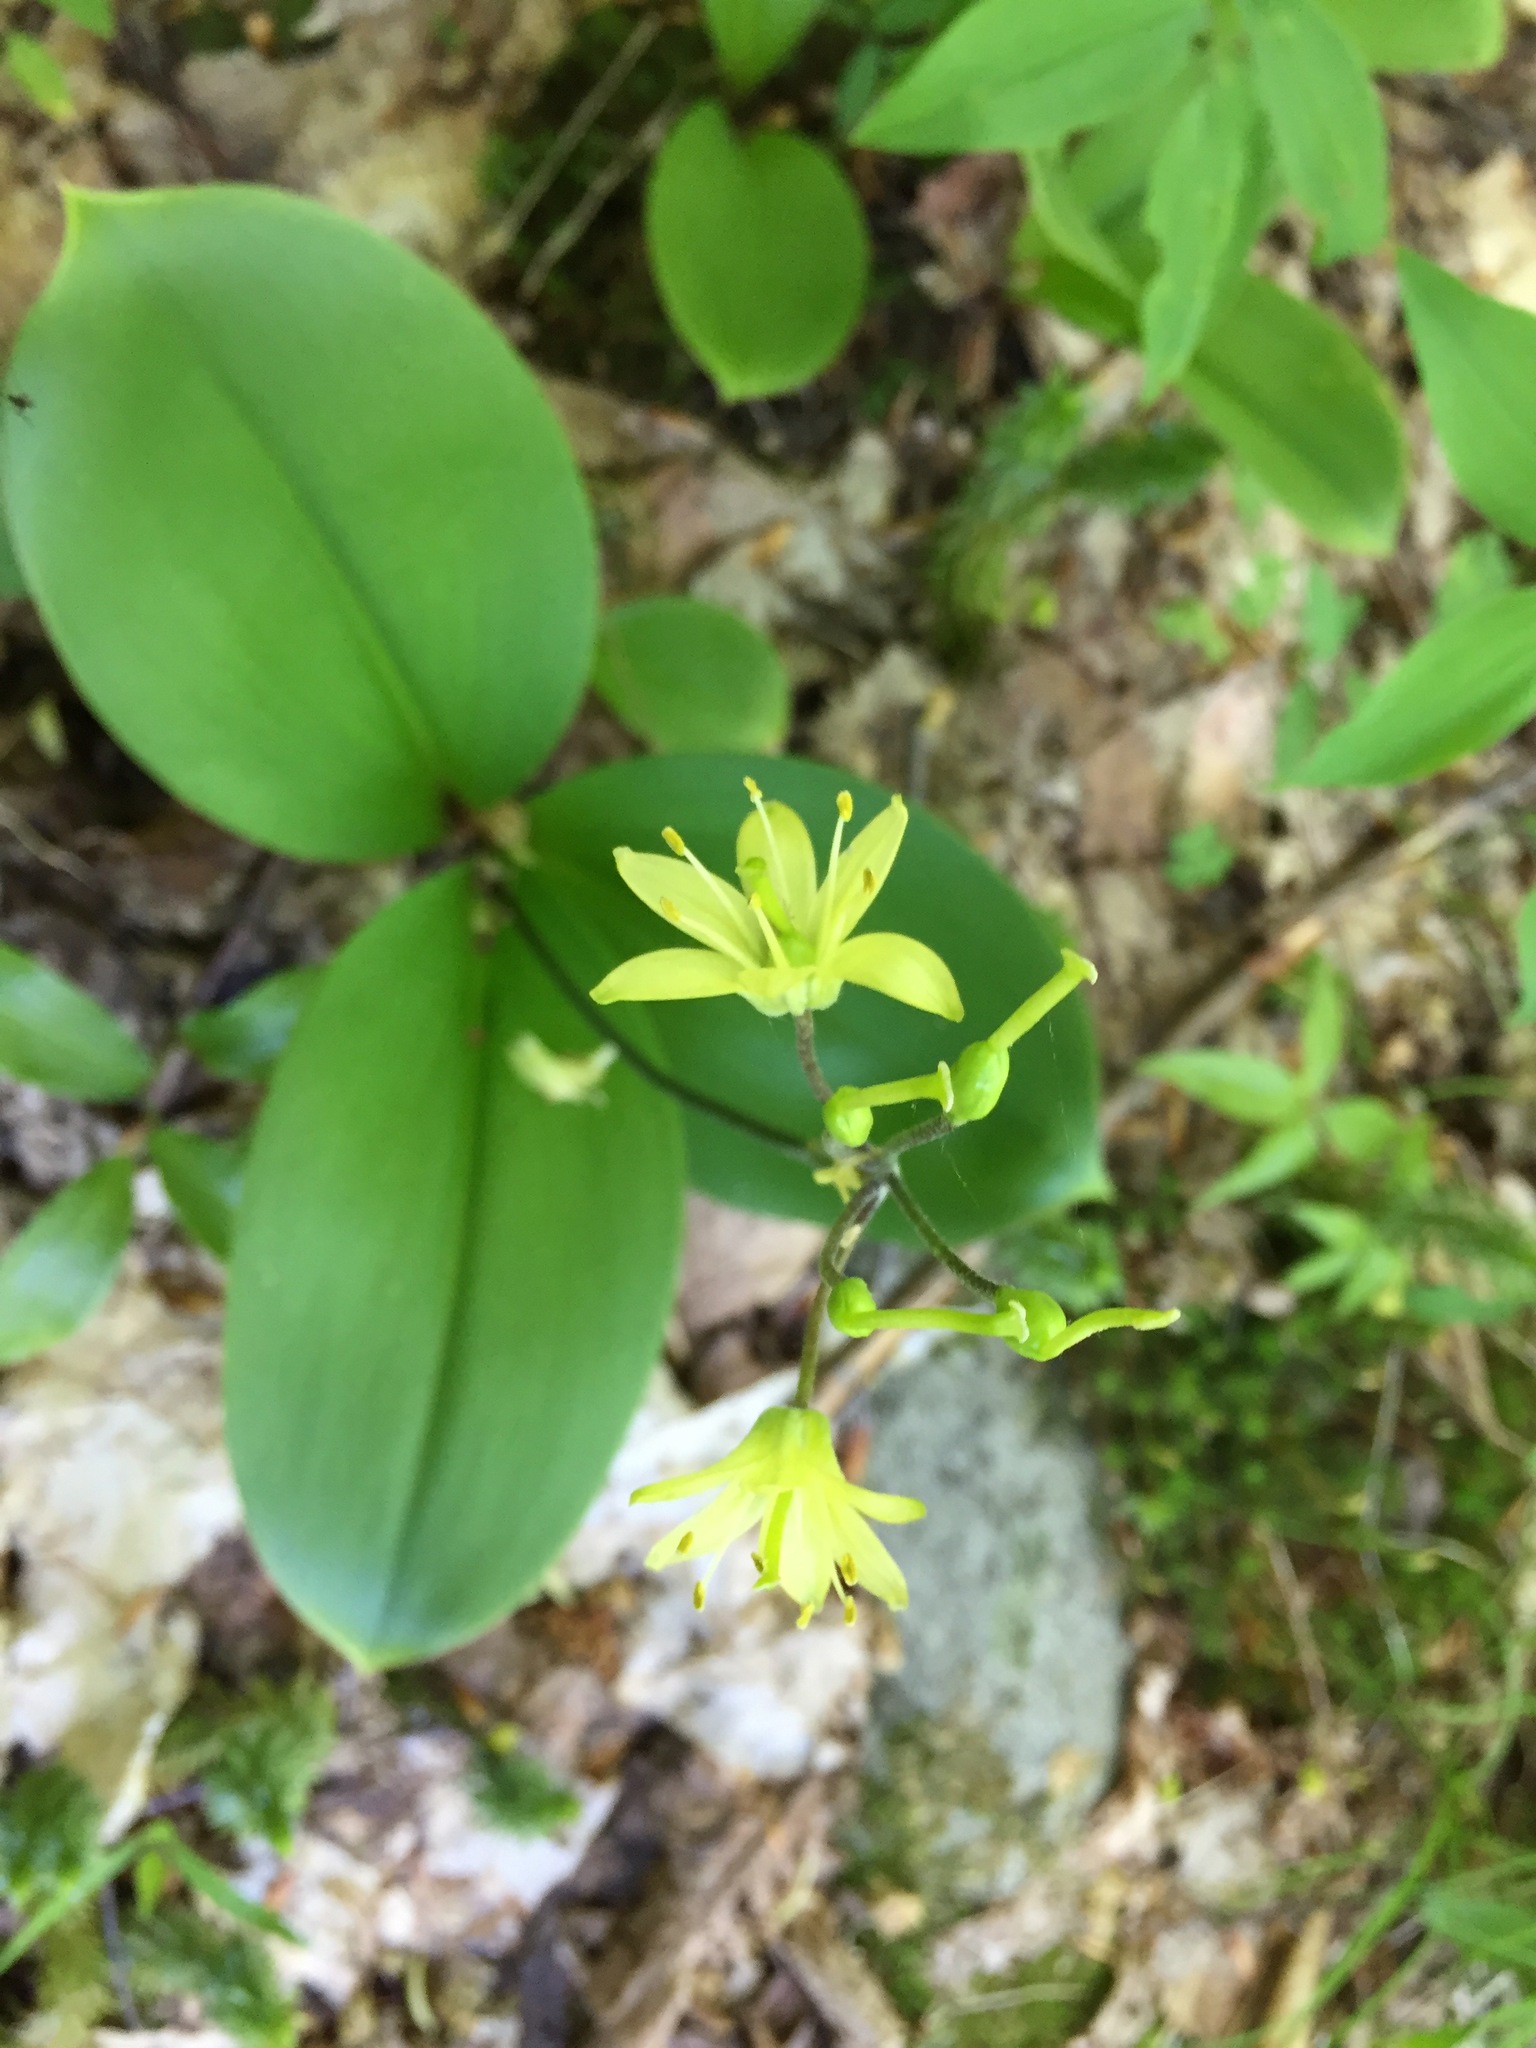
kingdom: Plantae
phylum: Tracheophyta
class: Liliopsida
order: Liliales
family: Liliaceae
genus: Clintonia
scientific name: Clintonia borealis
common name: Yellow clintonia
